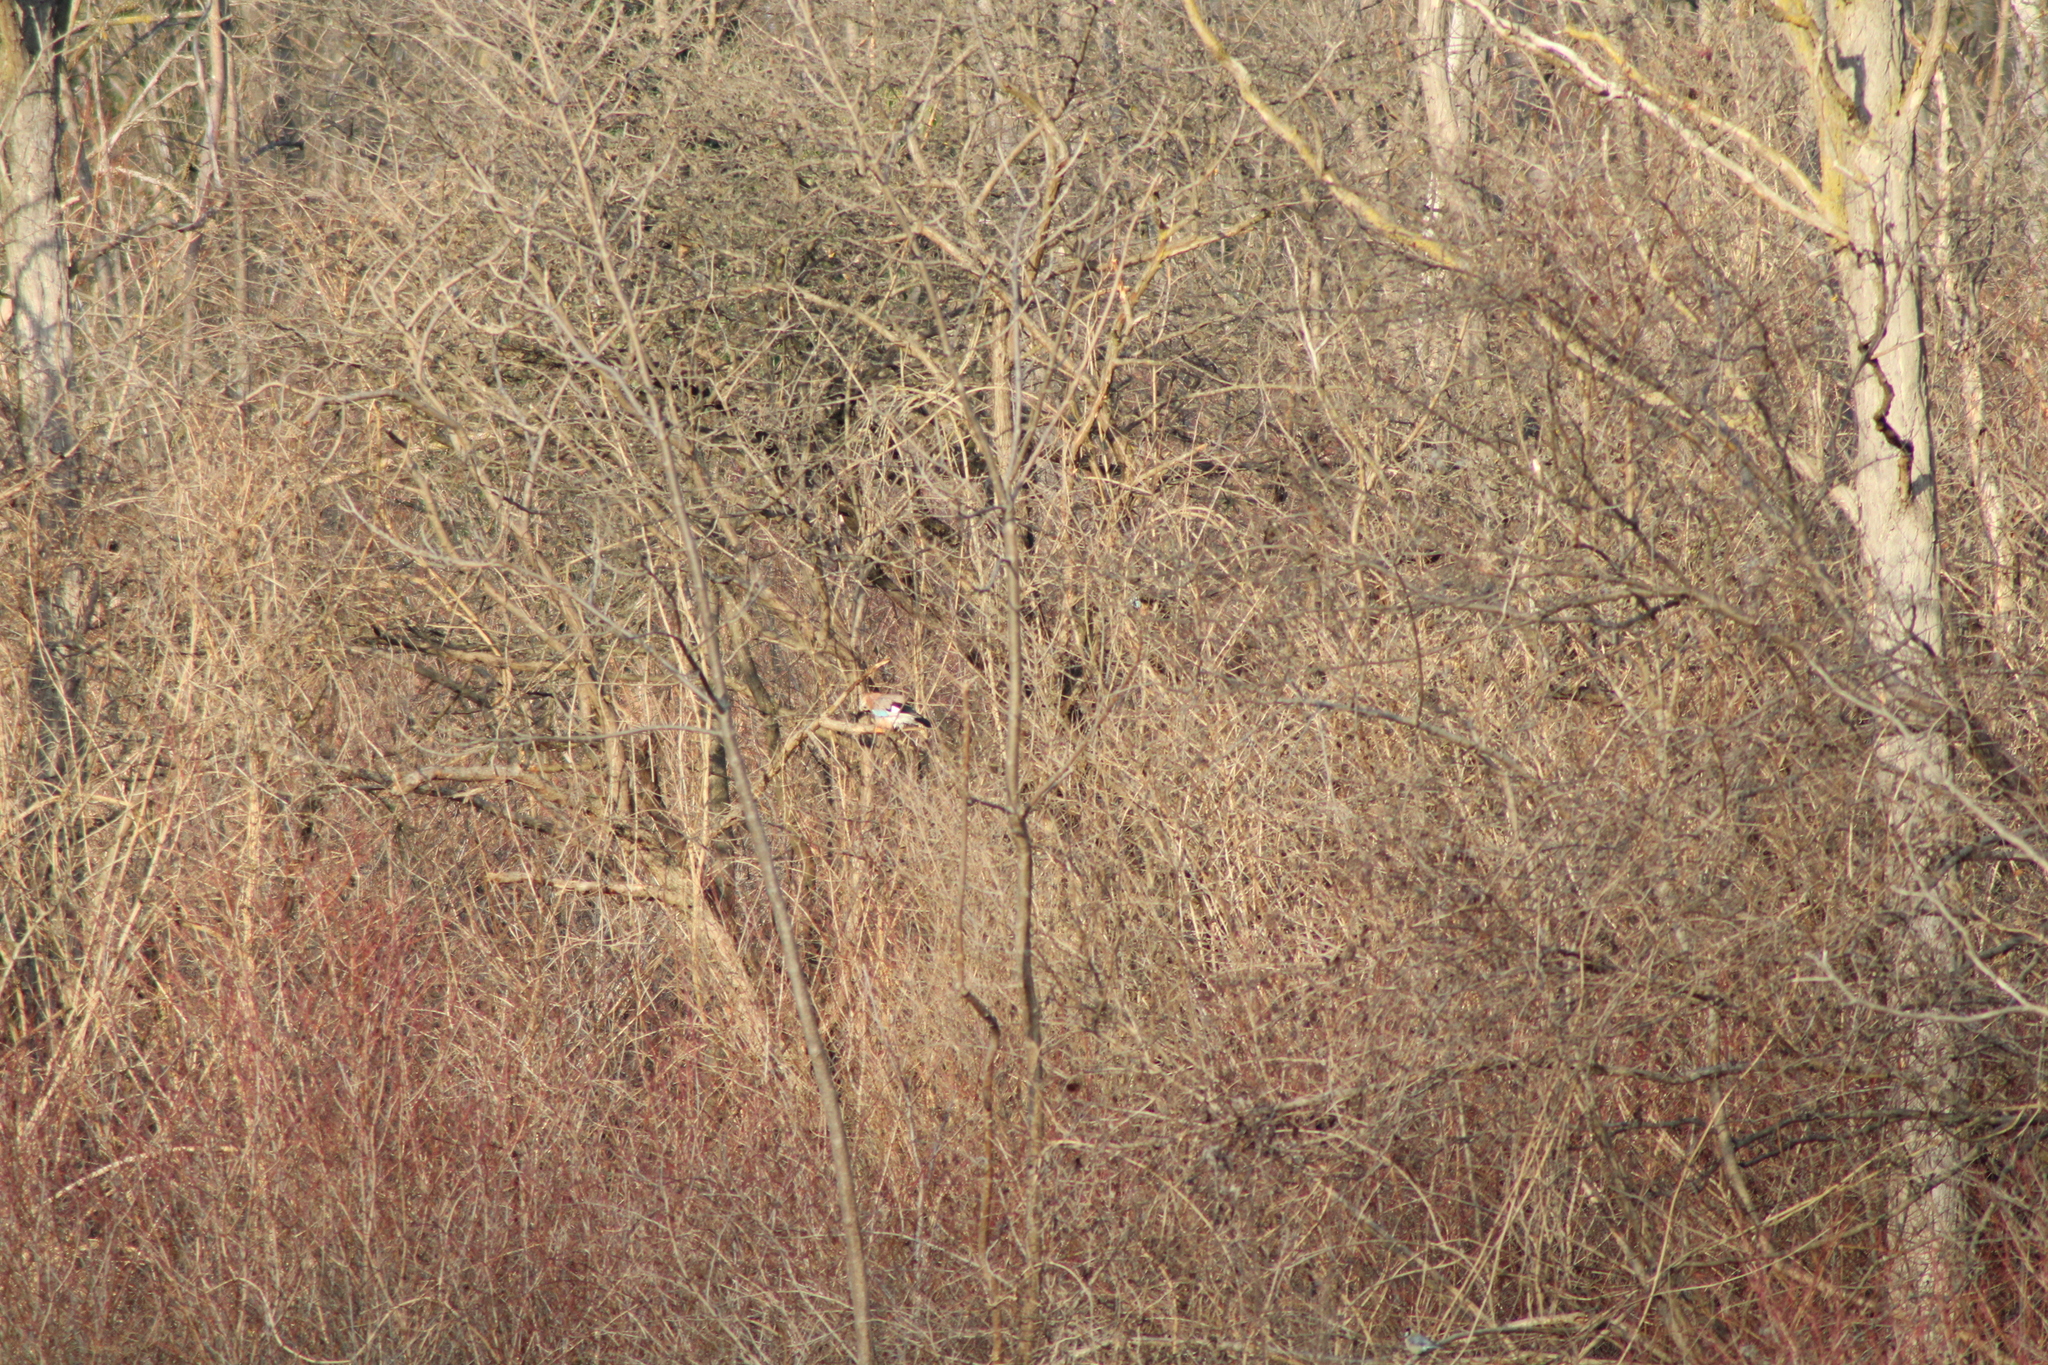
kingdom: Animalia
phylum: Chordata
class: Aves
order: Passeriformes
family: Corvidae
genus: Garrulus
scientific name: Garrulus glandarius
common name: Eurasian jay
